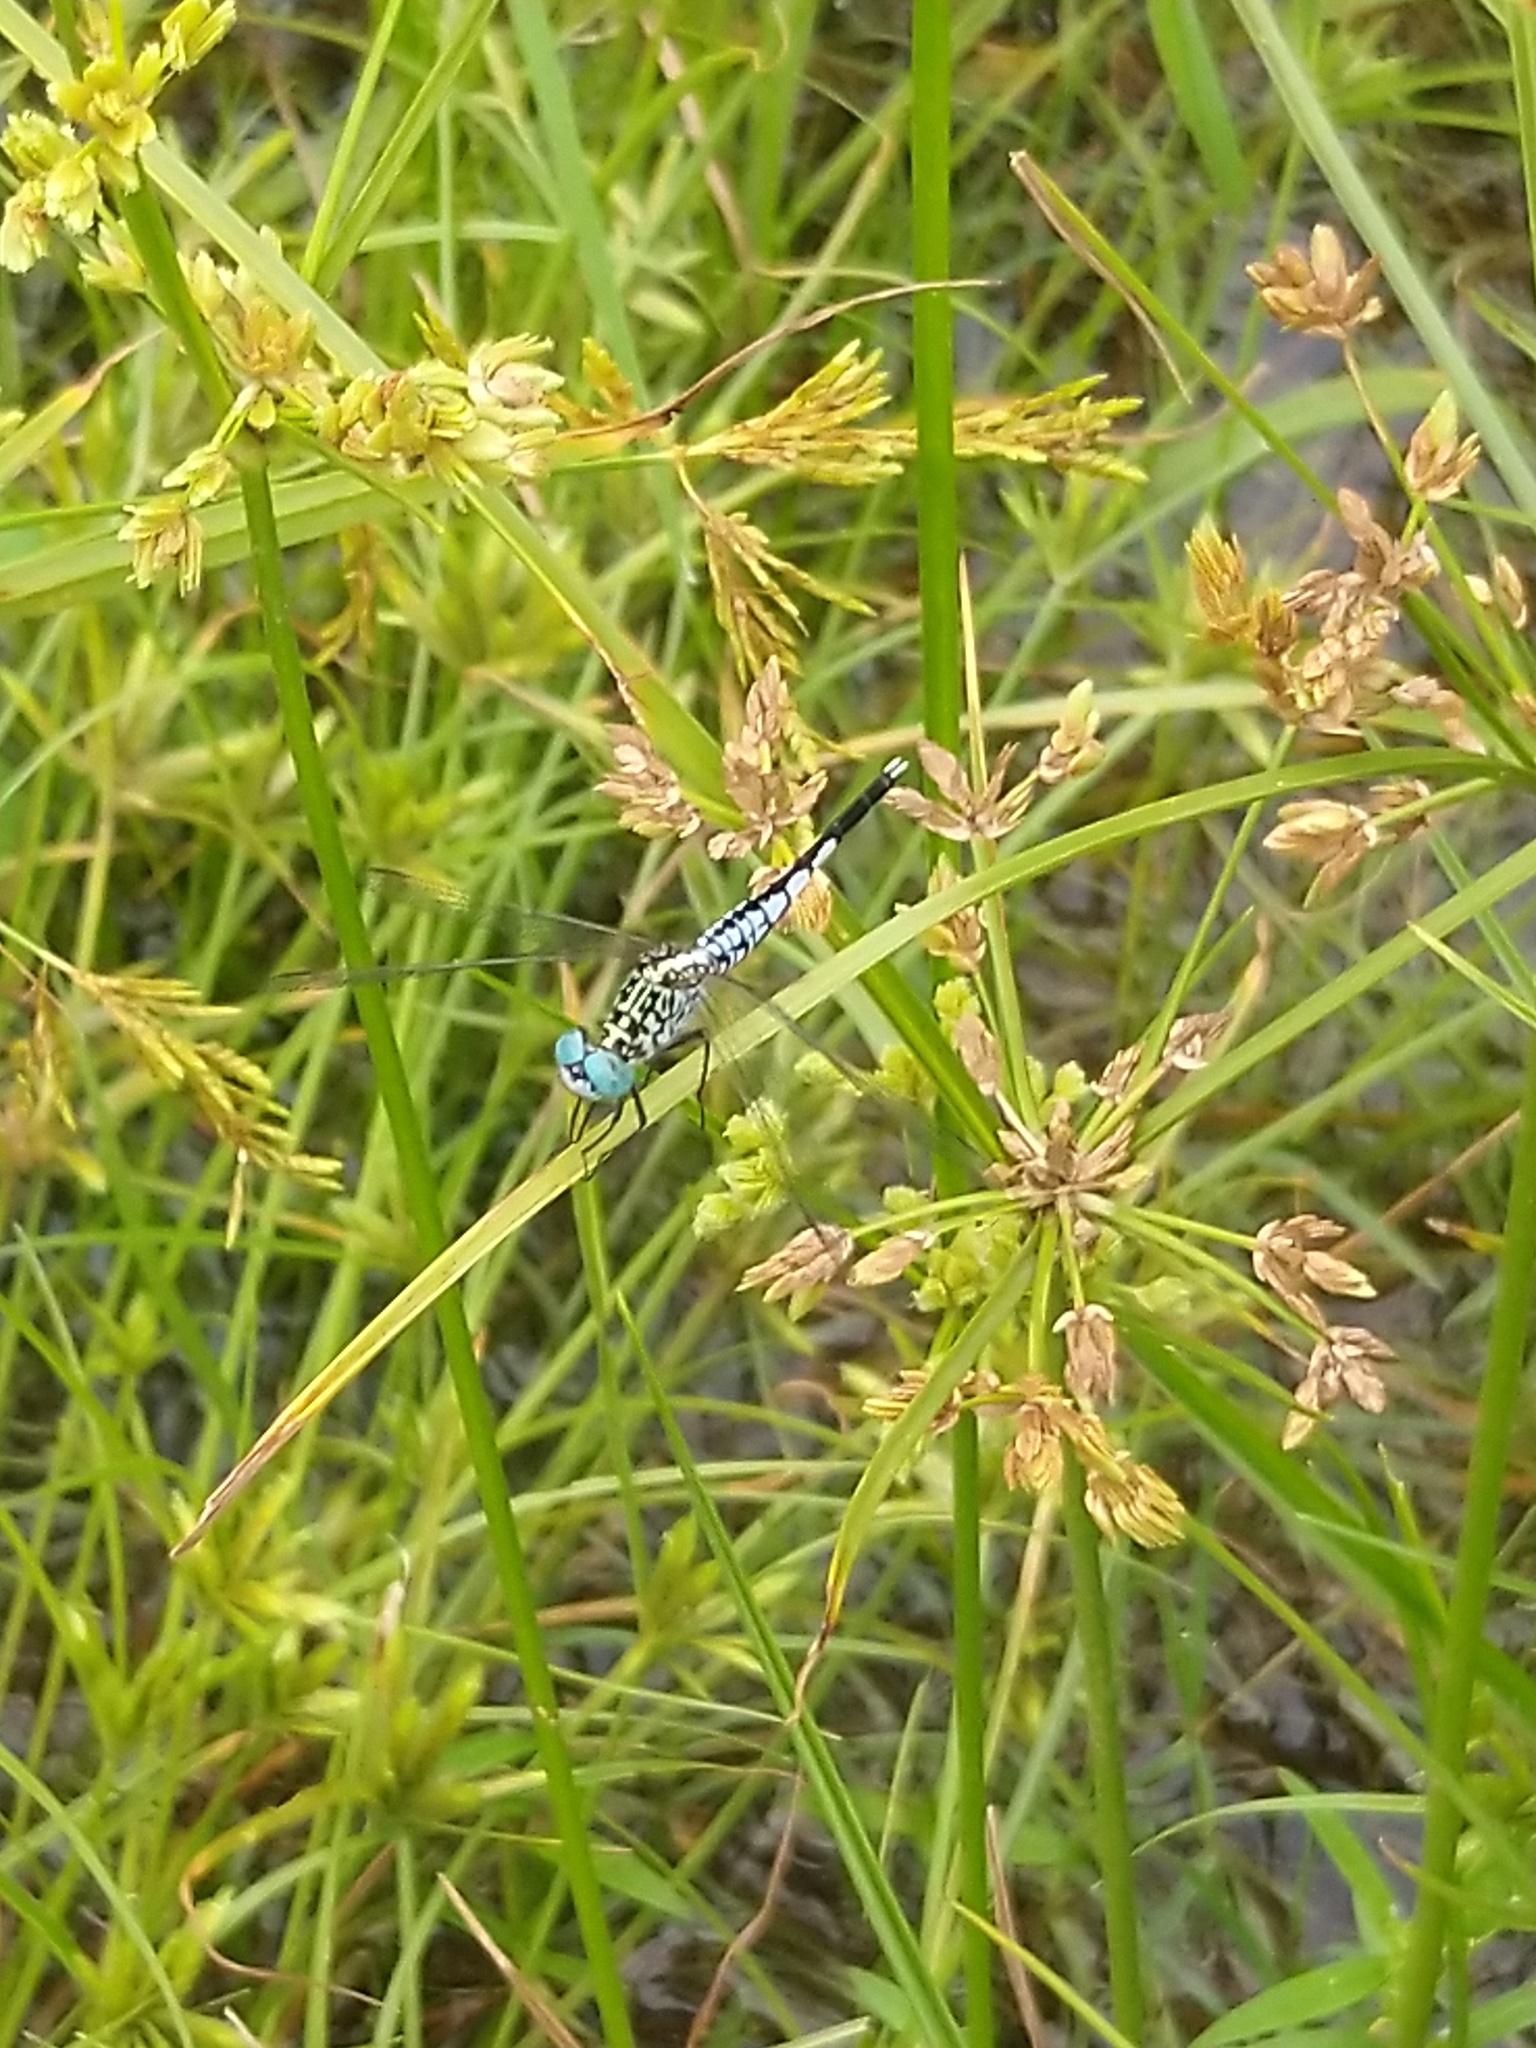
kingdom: Animalia
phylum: Arthropoda
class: Insecta
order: Odonata
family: Libellulidae
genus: Acisoma
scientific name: Acisoma panorpoides
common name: Asian pintail
